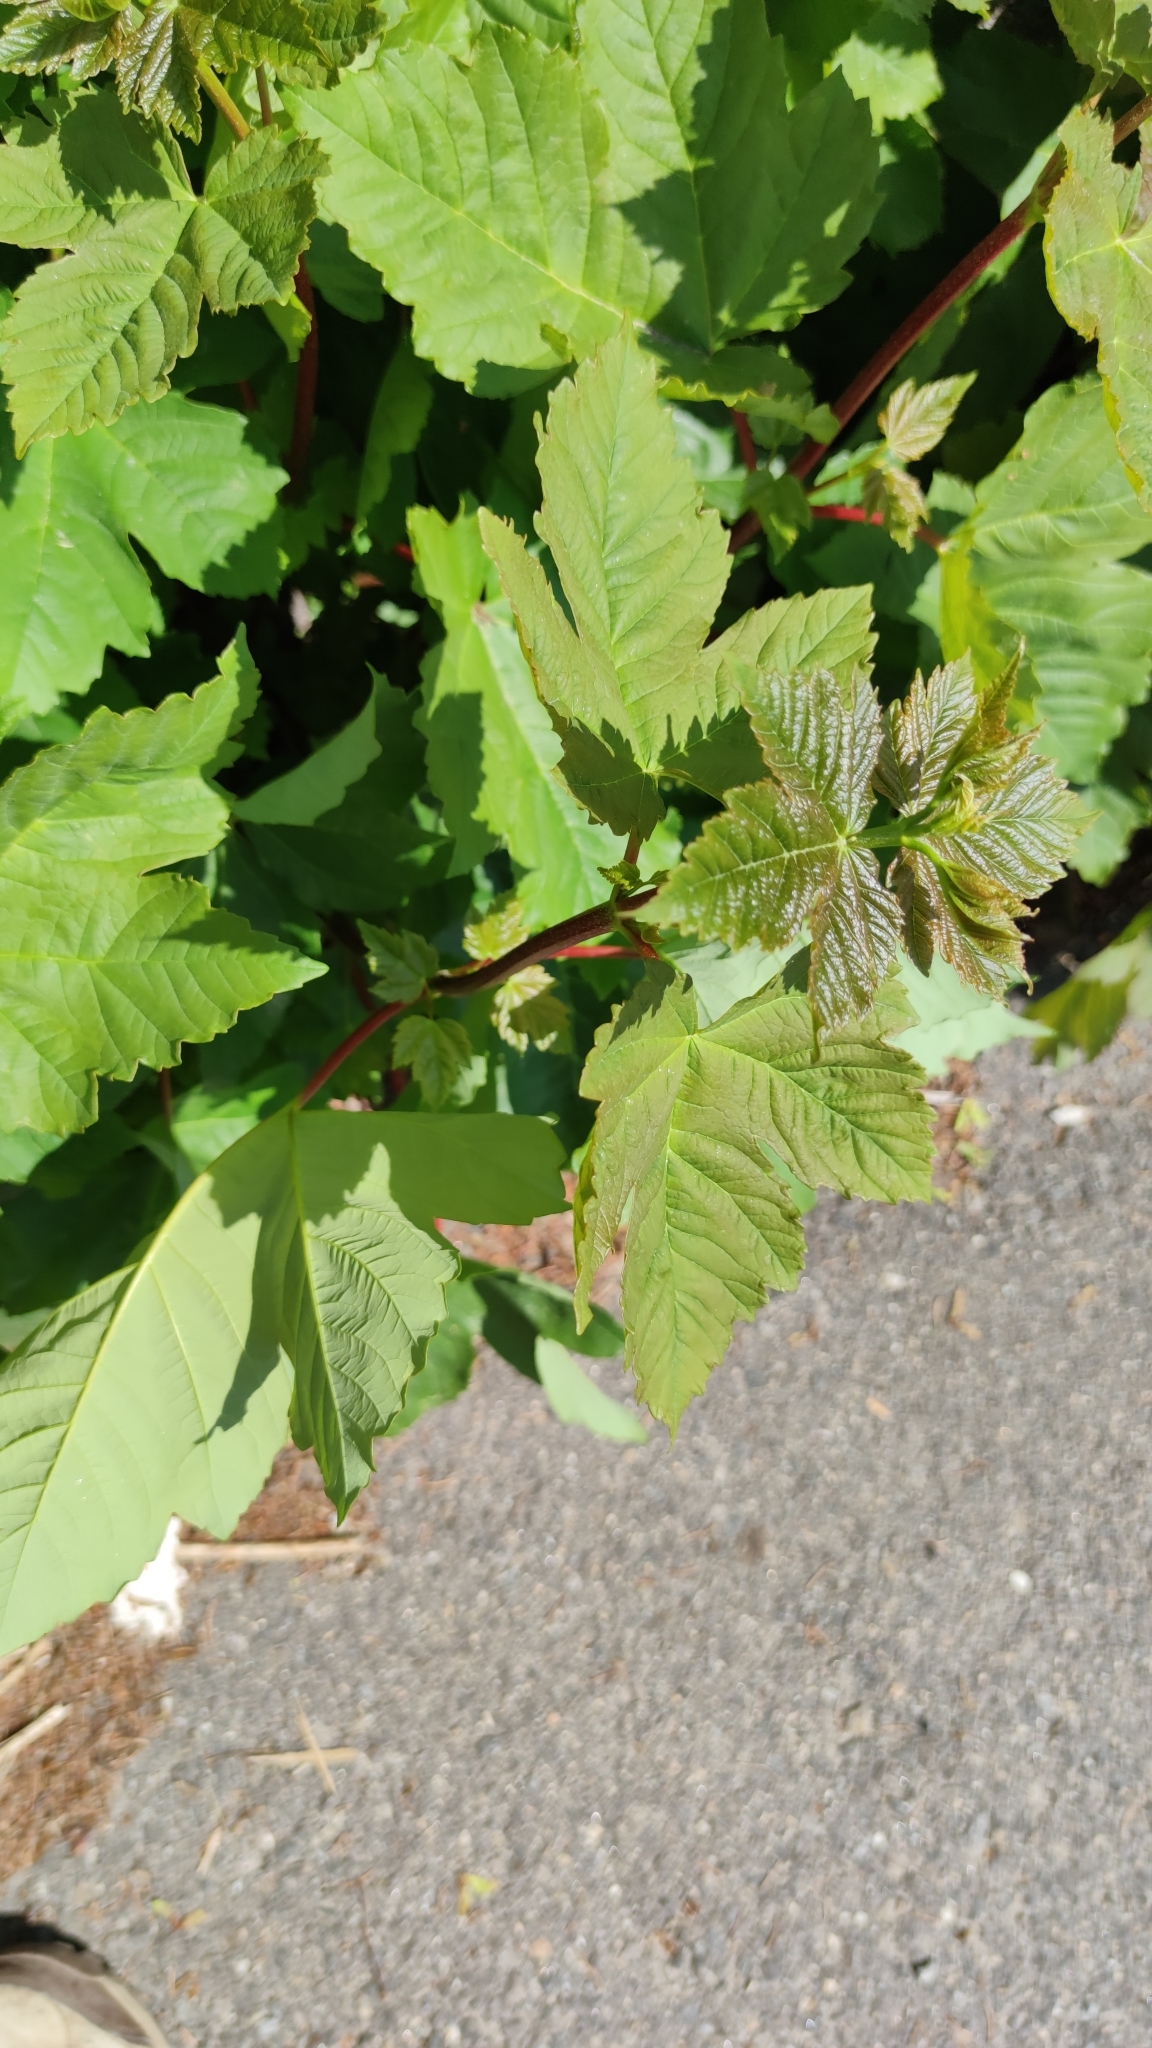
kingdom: Plantae
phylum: Tracheophyta
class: Magnoliopsida
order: Sapindales
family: Sapindaceae
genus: Acer
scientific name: Acer pseudoplatanus
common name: Sycamore
